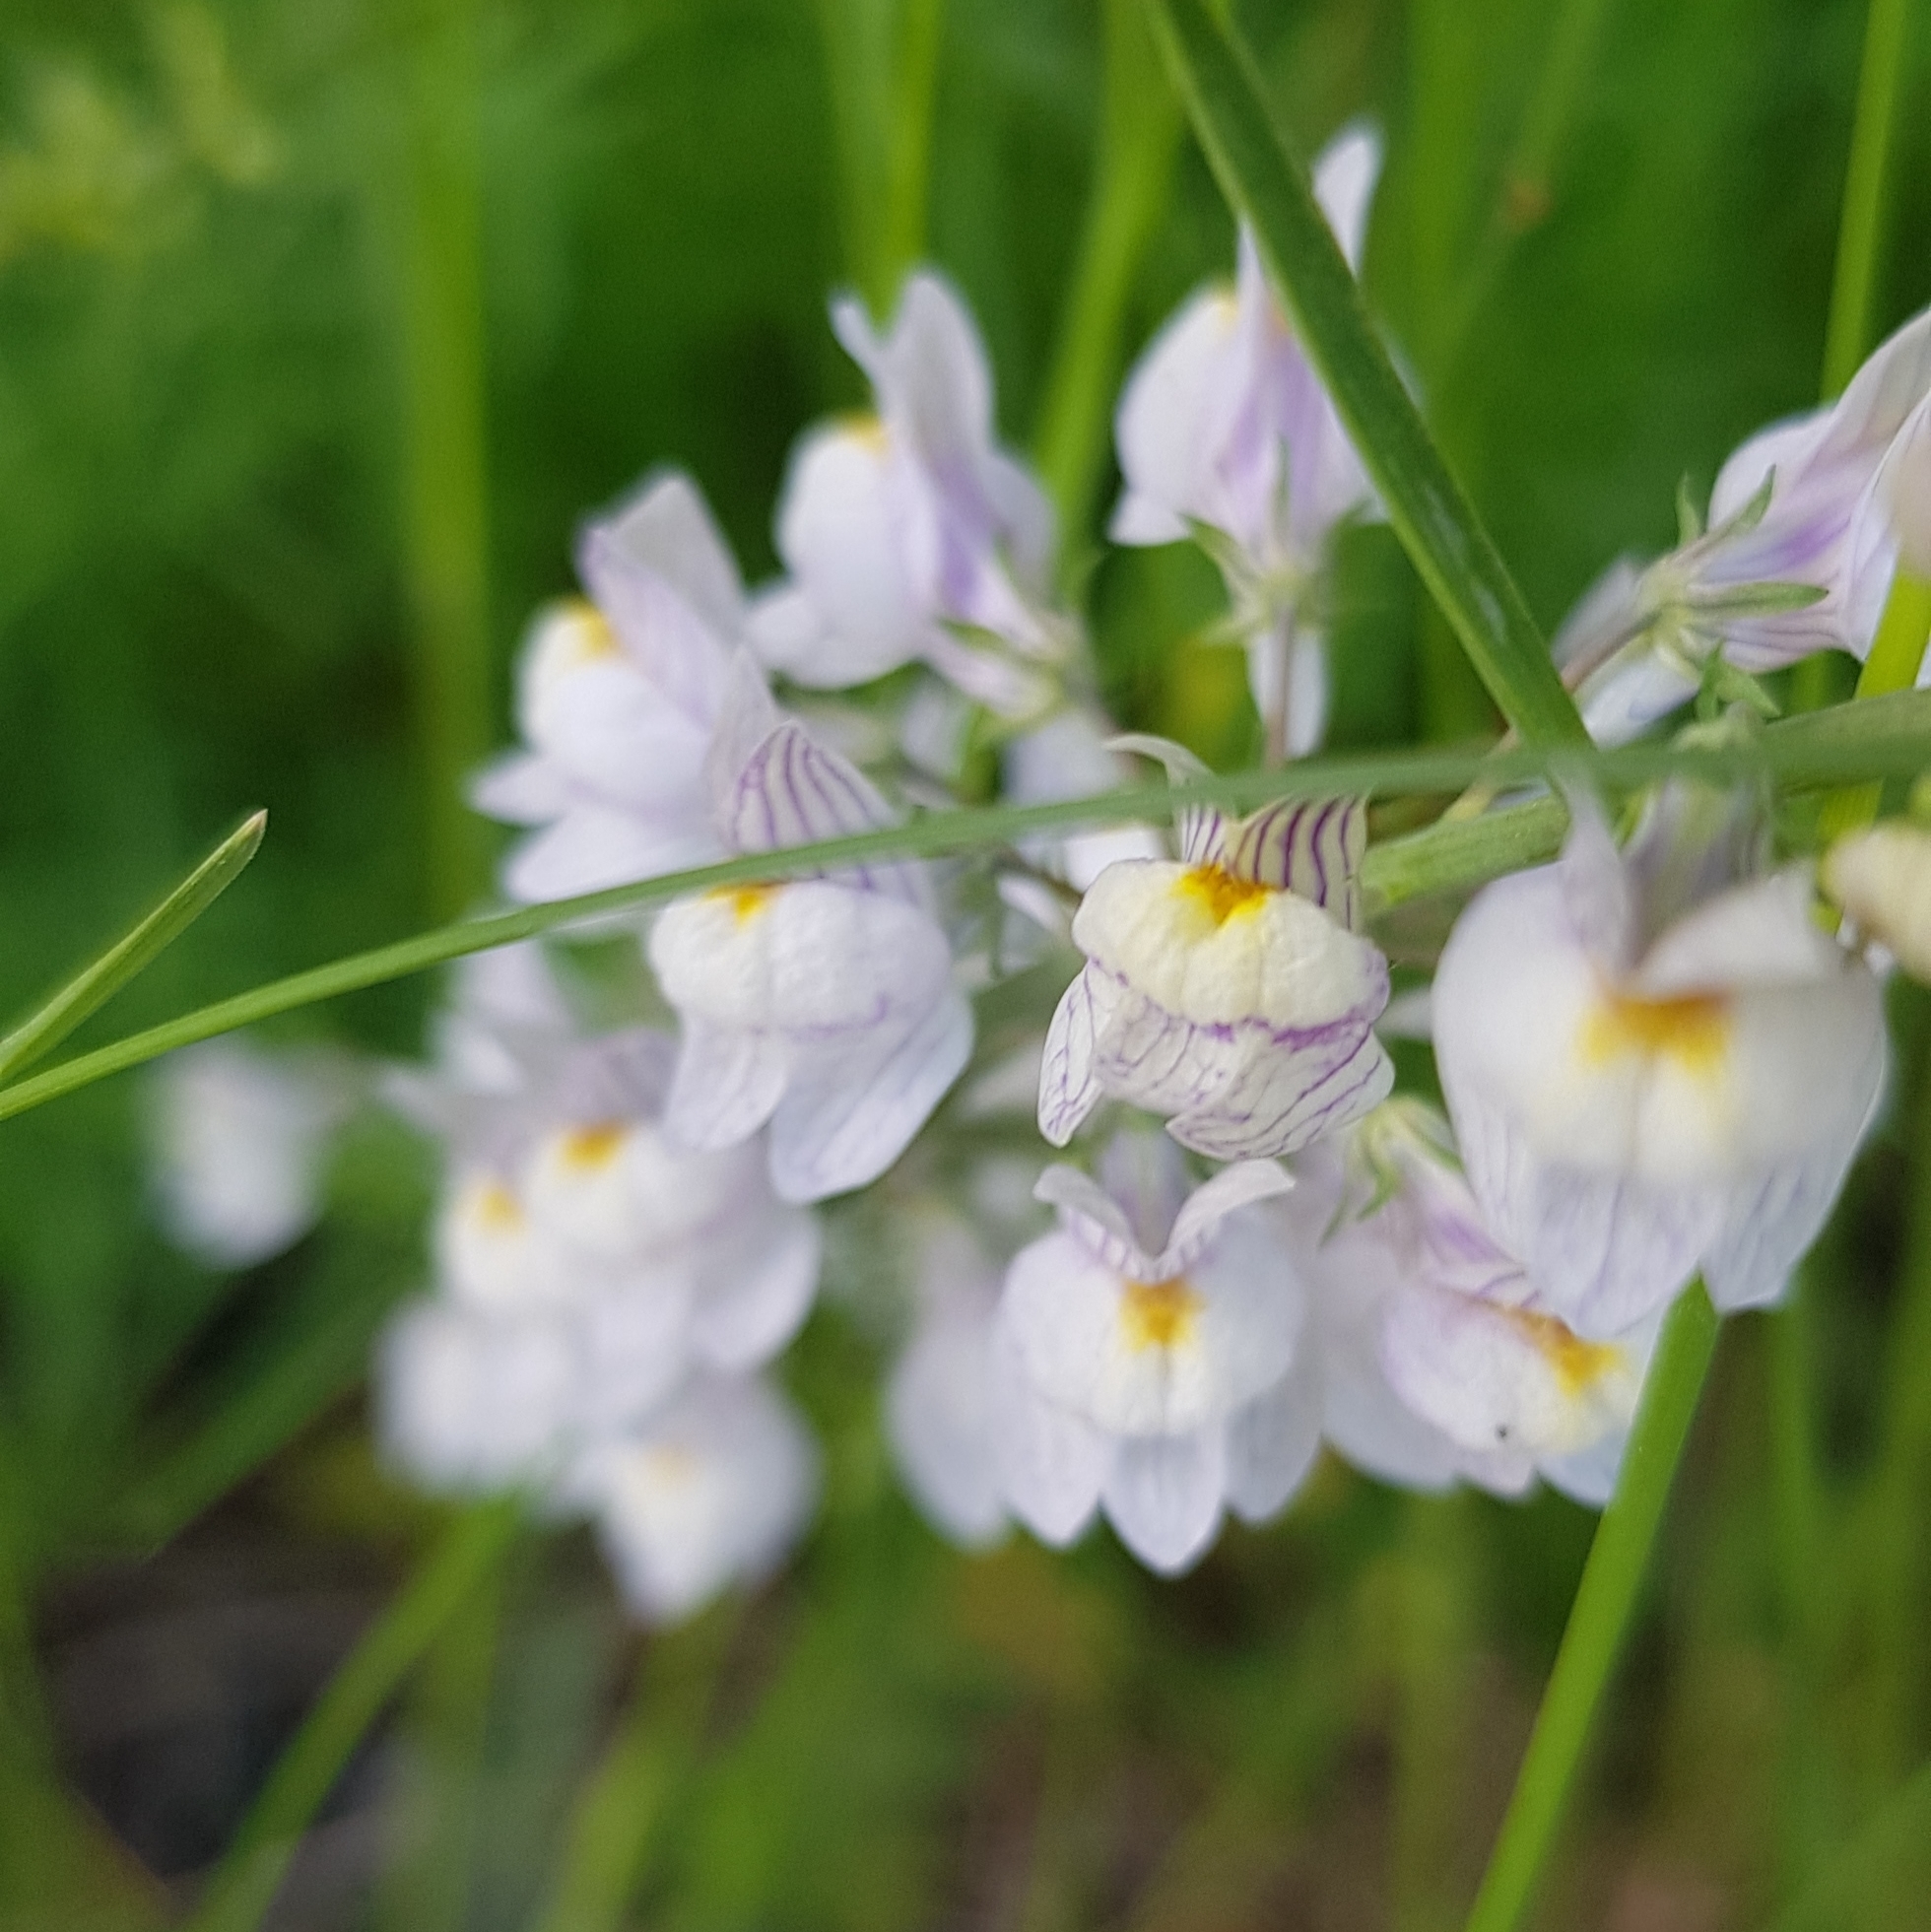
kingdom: Plantae
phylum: Tracheophyta
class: Magnoliopsida
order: Lamiales
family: Plantaginaceae
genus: Linaria
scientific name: Linaria repens
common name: Pale toadflax
